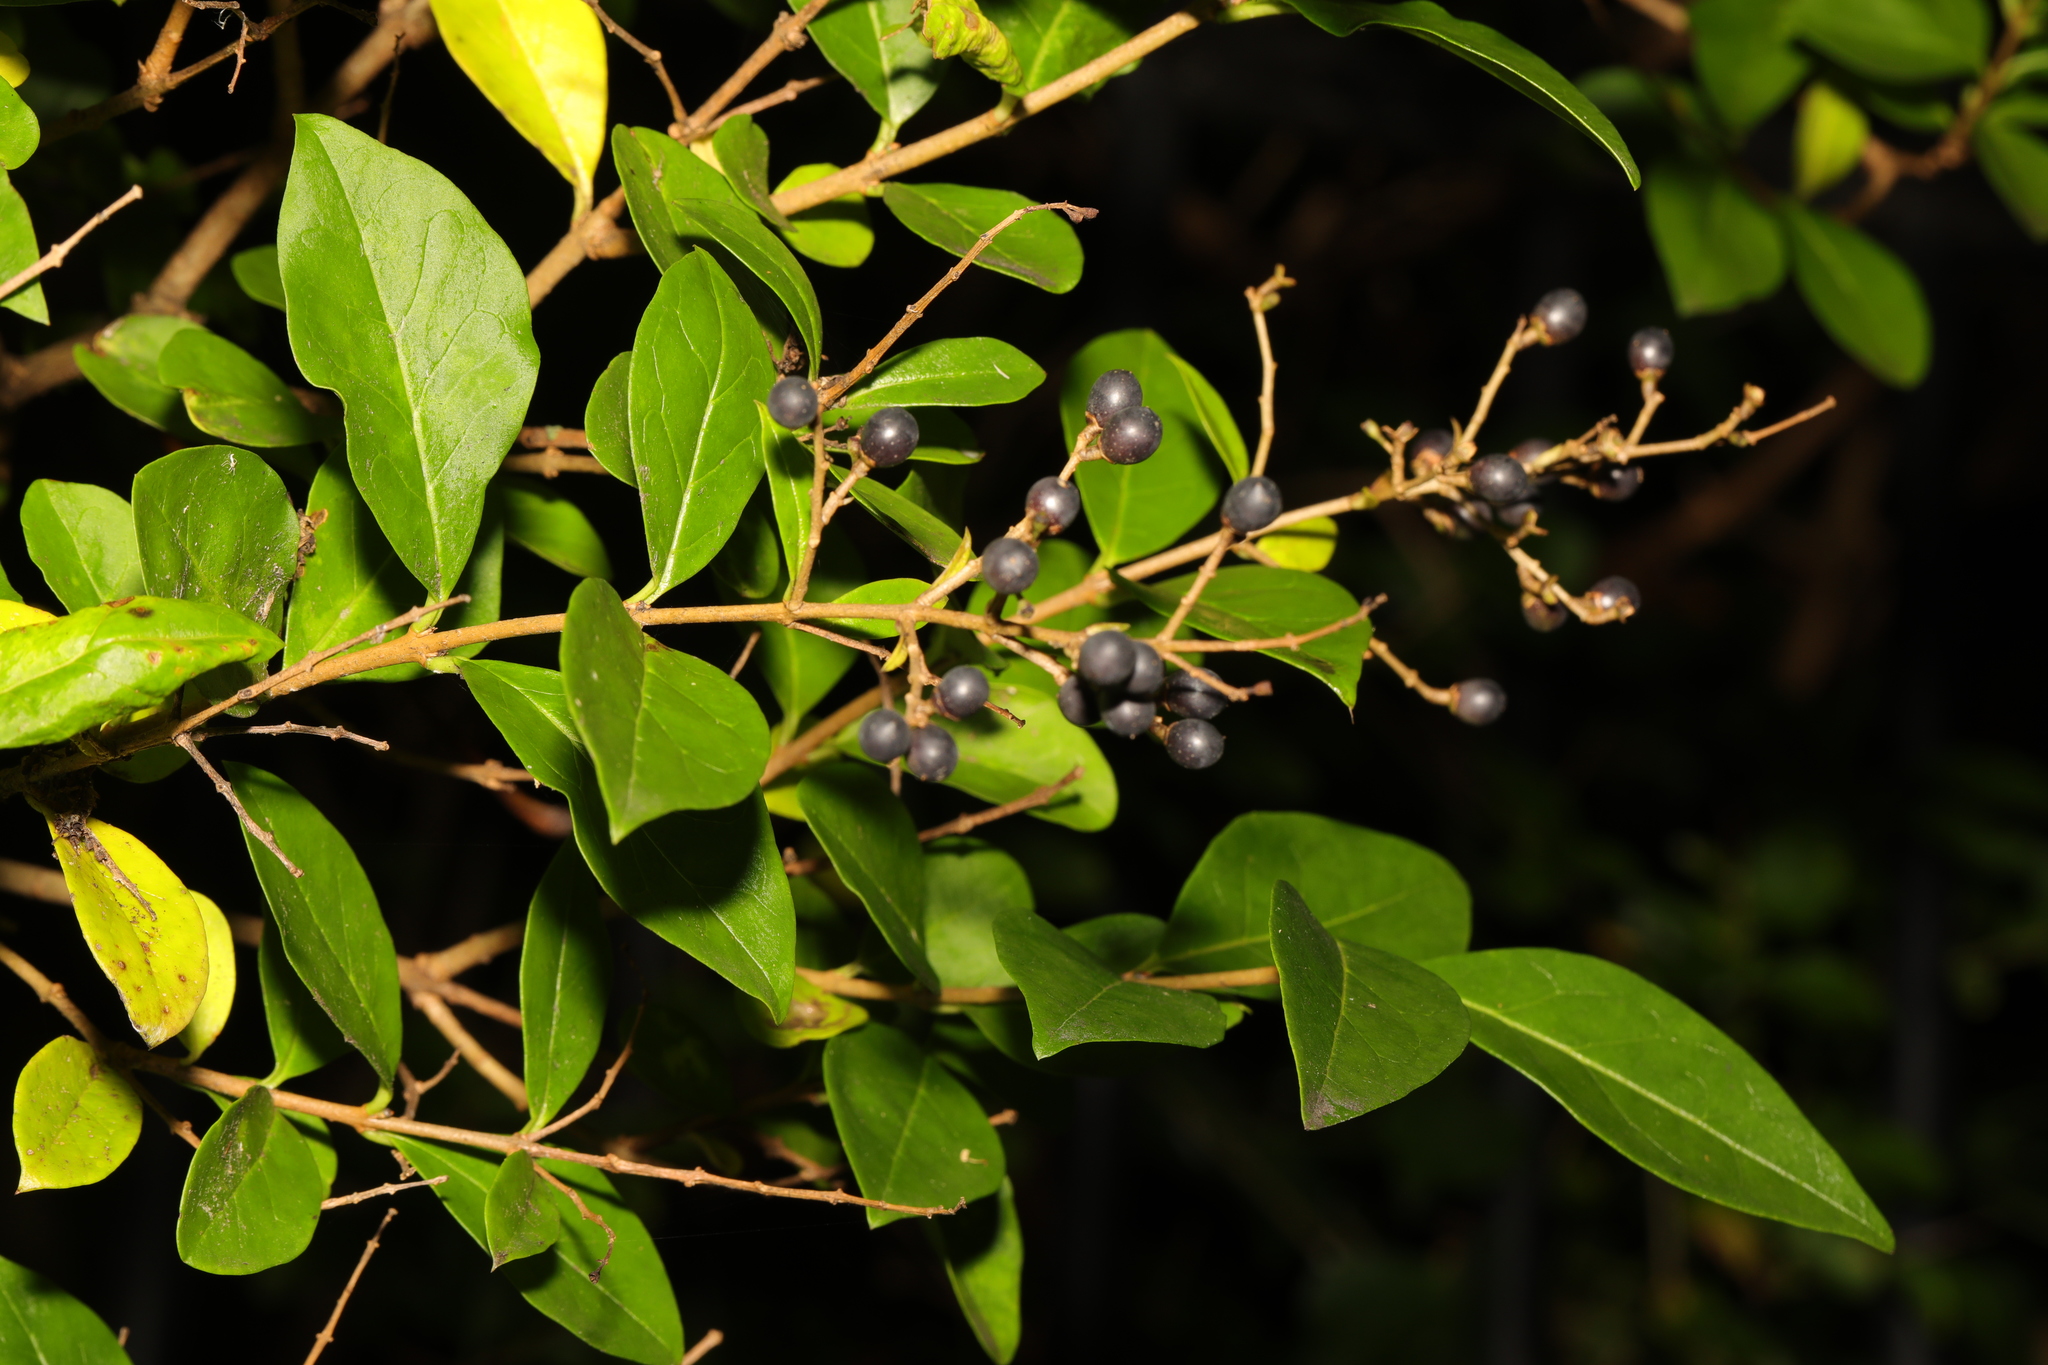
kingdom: Plantae
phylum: Tracheophyta
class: Magnoliopsida
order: Lamiales
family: Oleaceae
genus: Ligustrum
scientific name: Ligustrum ovalifolium
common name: California privet
